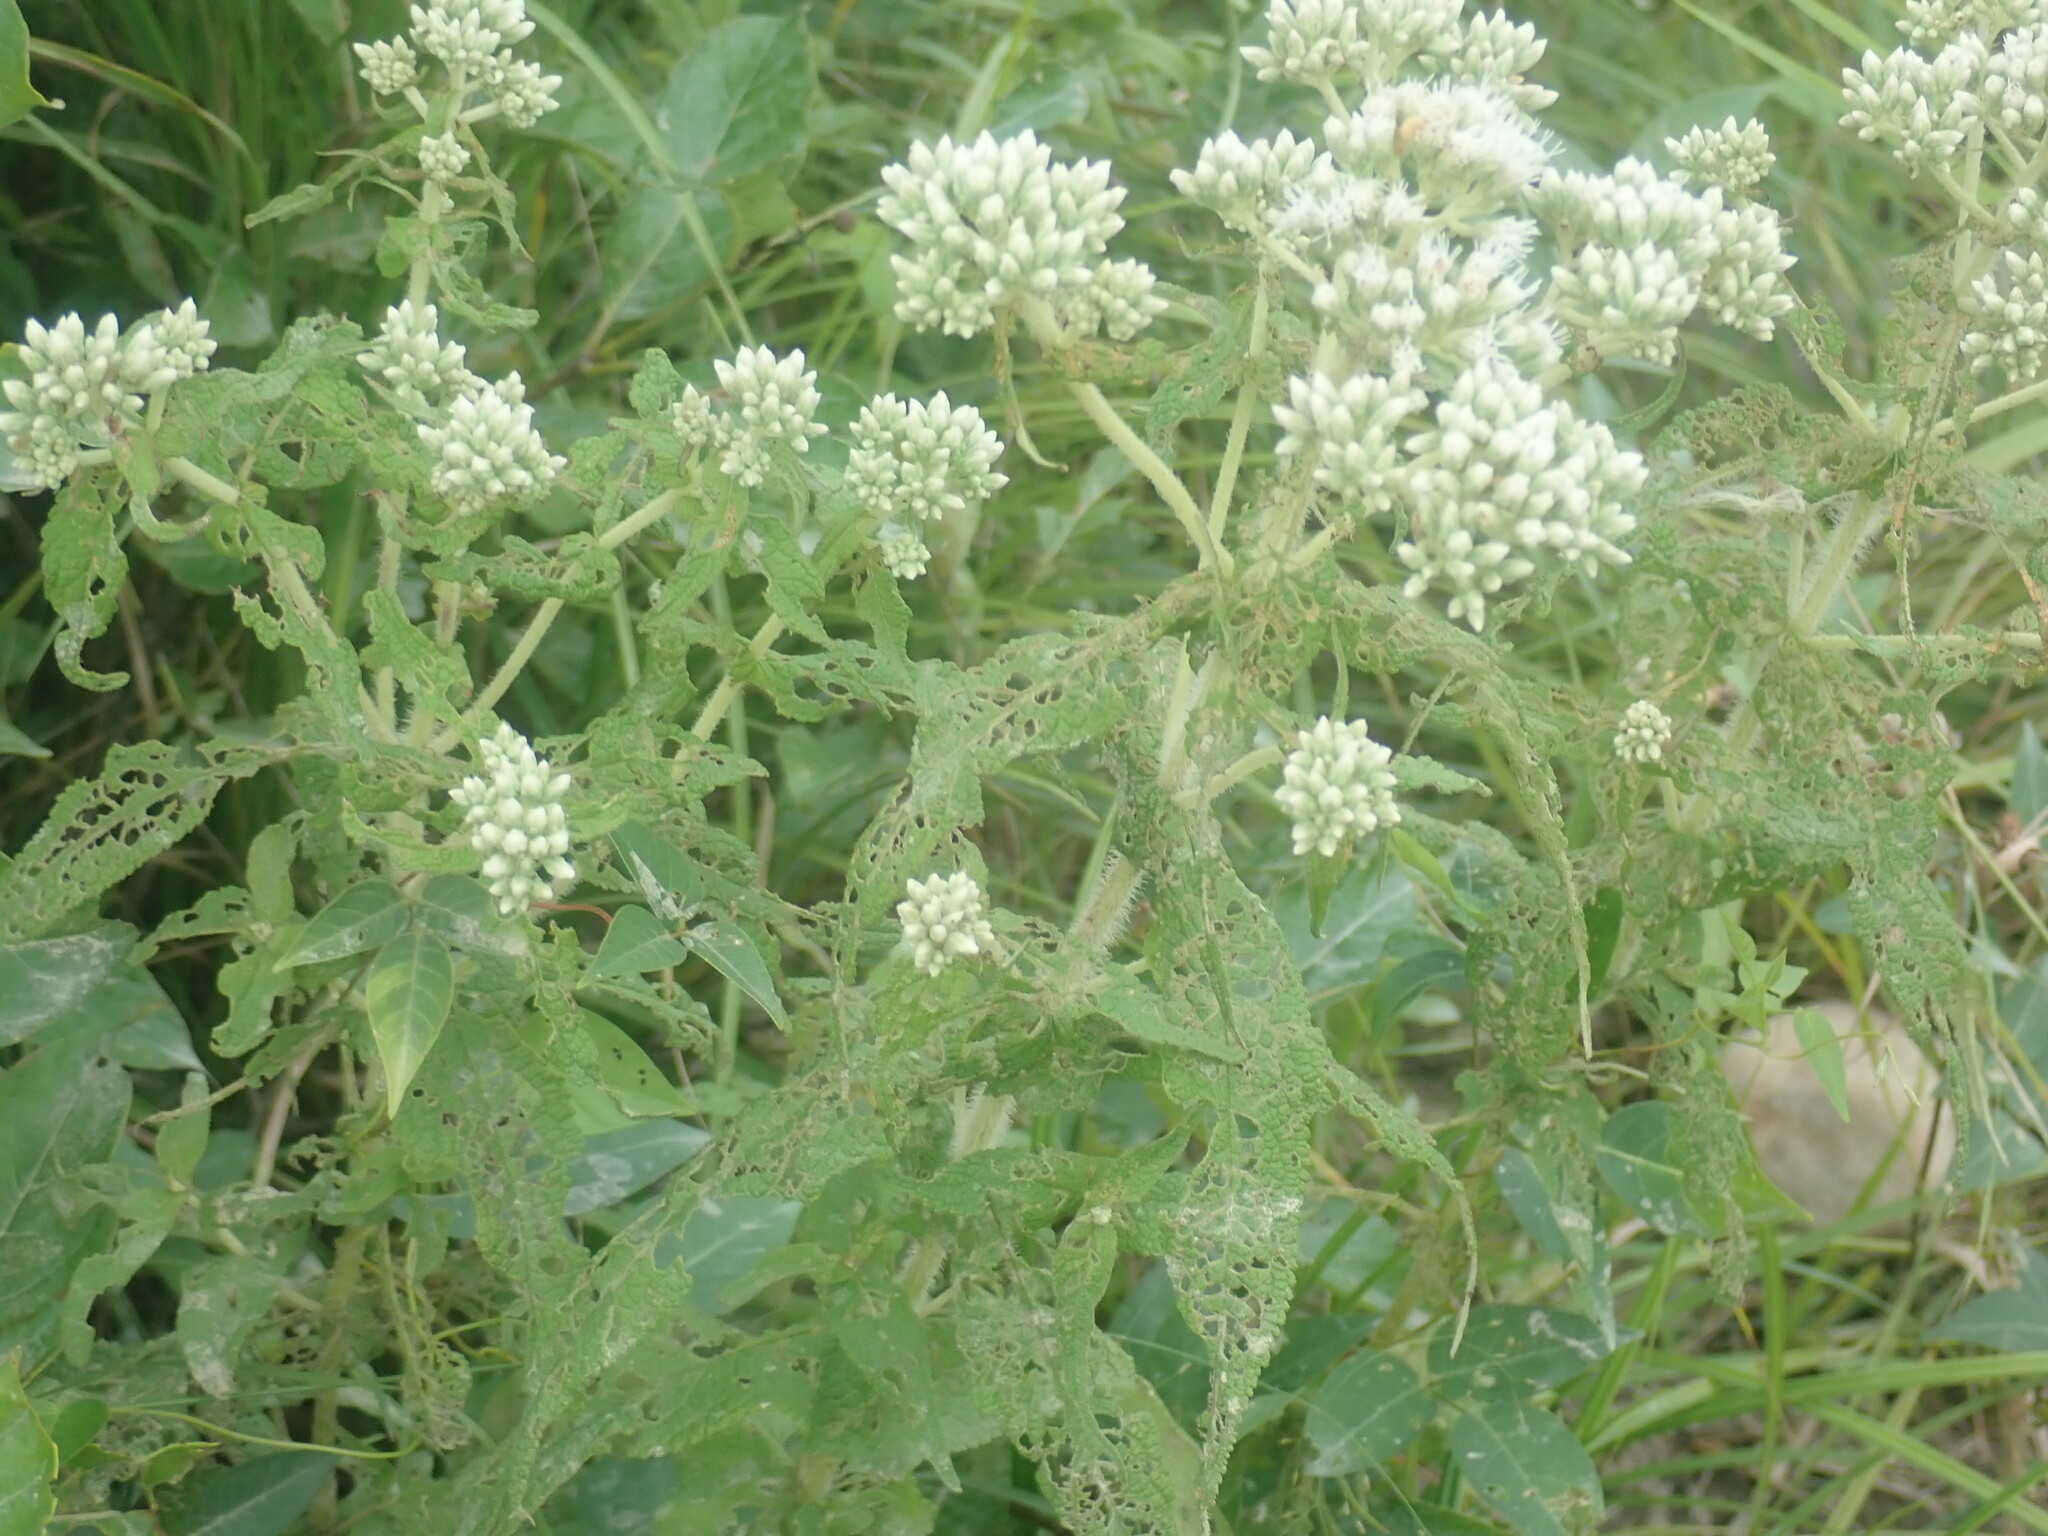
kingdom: Plantae
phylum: Tracheophyta
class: Magnoliopsida
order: Asterales
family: Asteraceae
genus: Eupatorium
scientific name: Eupatorium perfoliatum
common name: Boneset
